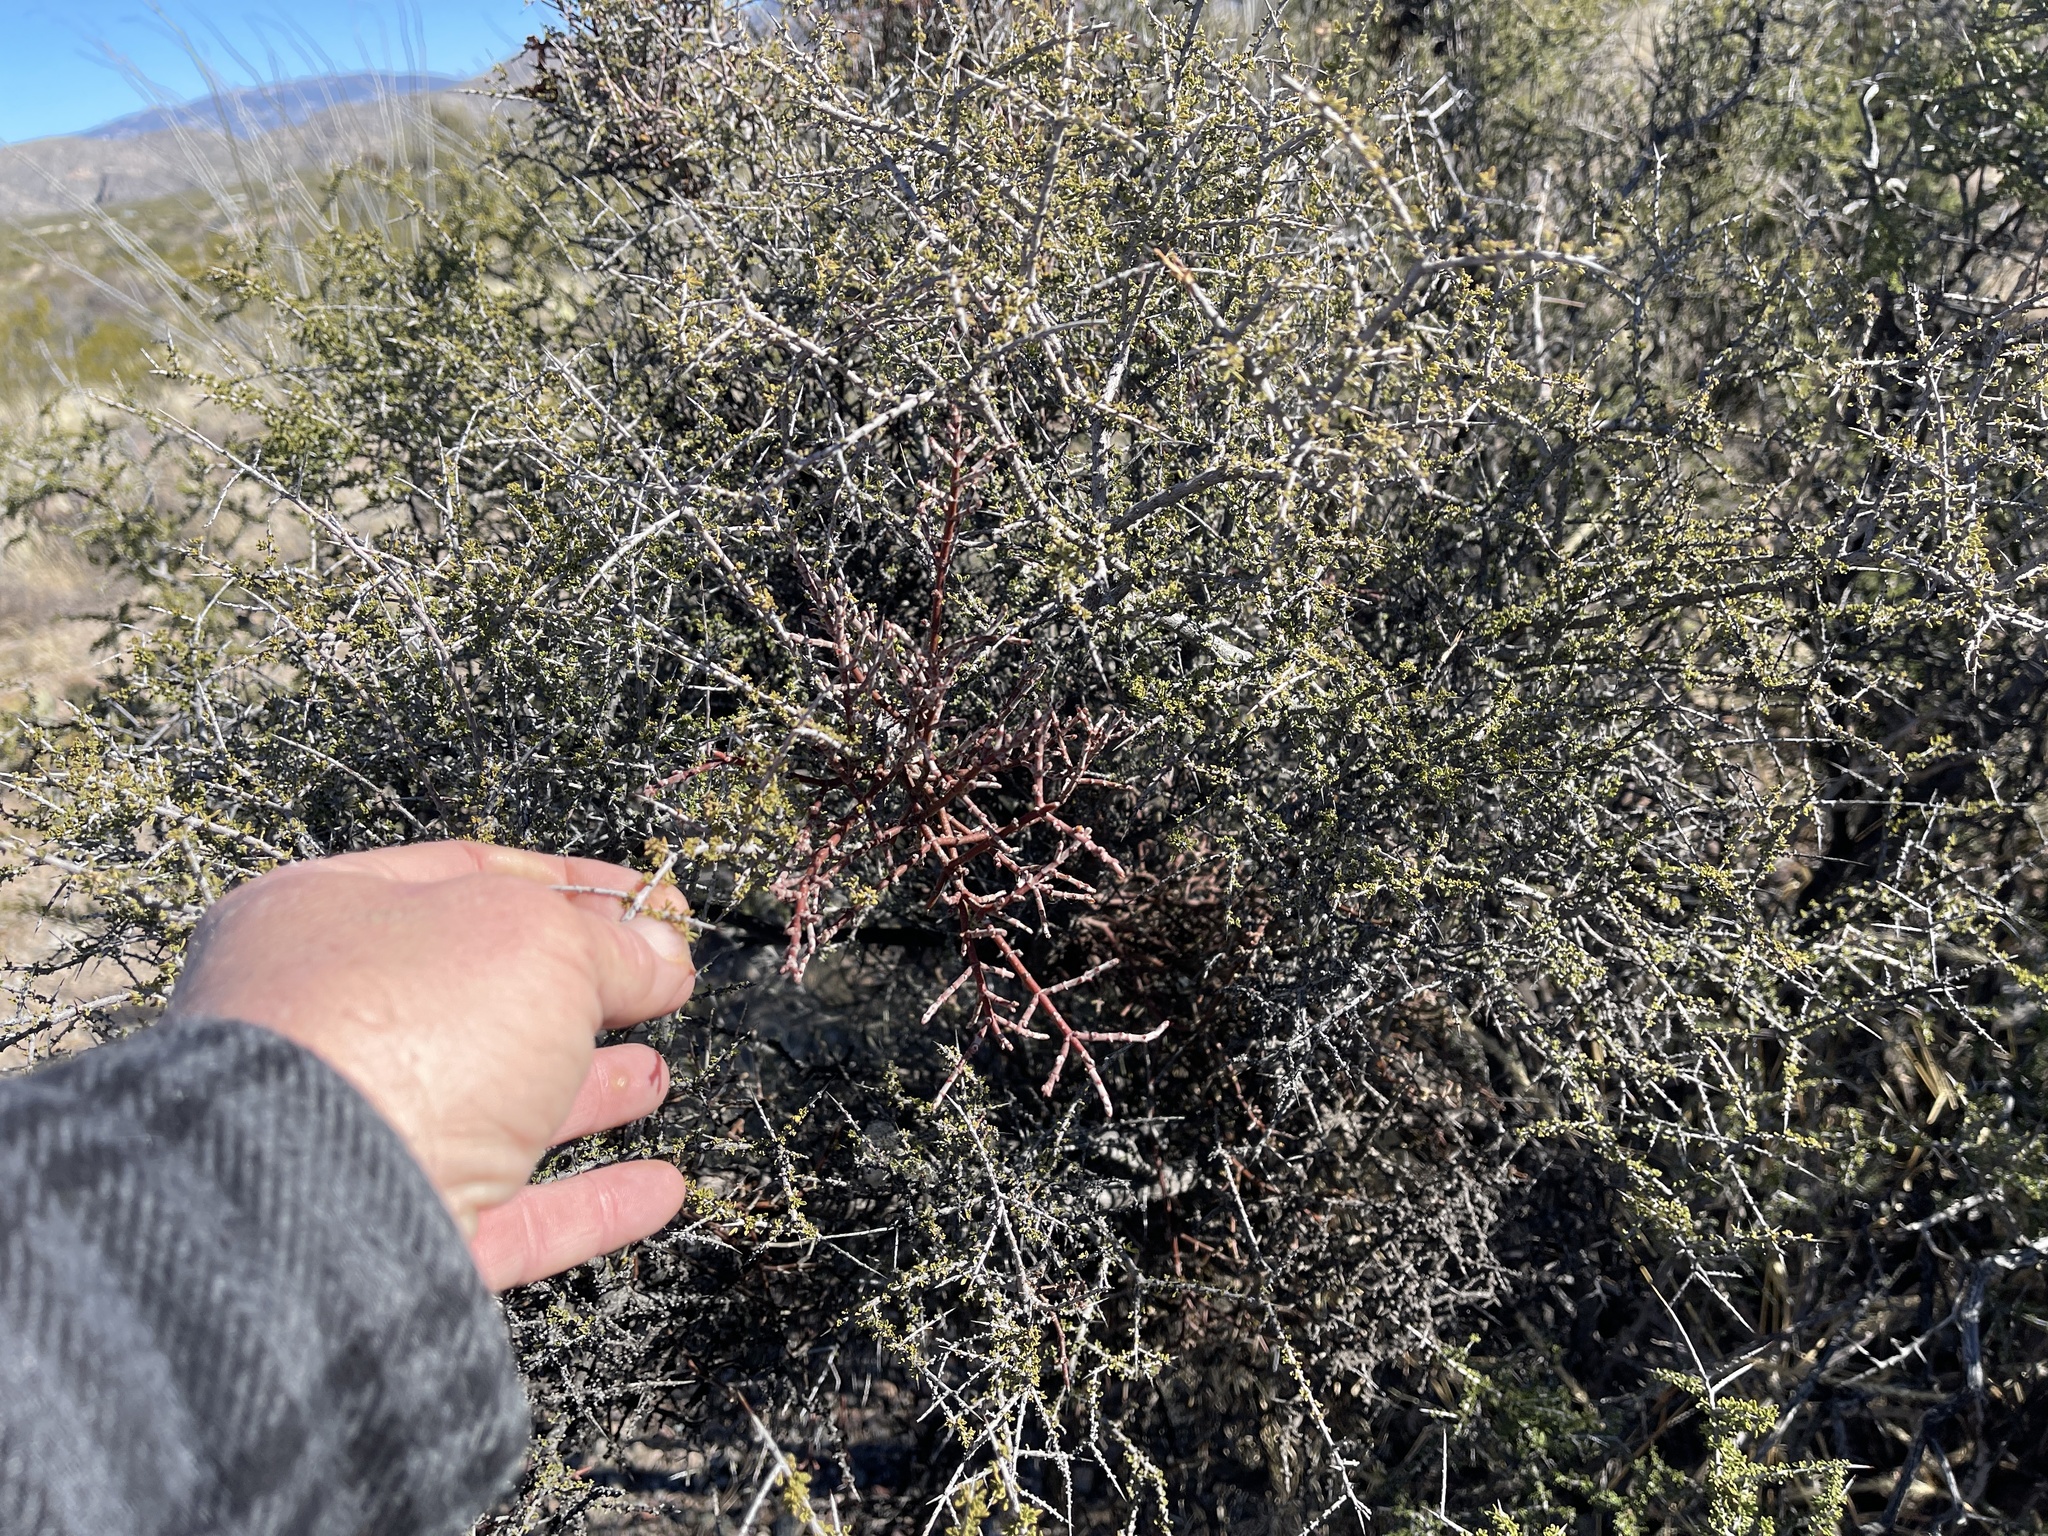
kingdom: Plantae
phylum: Tracheophyta
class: Magnoliopsida
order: Santalales
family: Viscaceae
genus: Phoradendron
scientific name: Phoradendron californicum
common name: Acacia mistletoe
